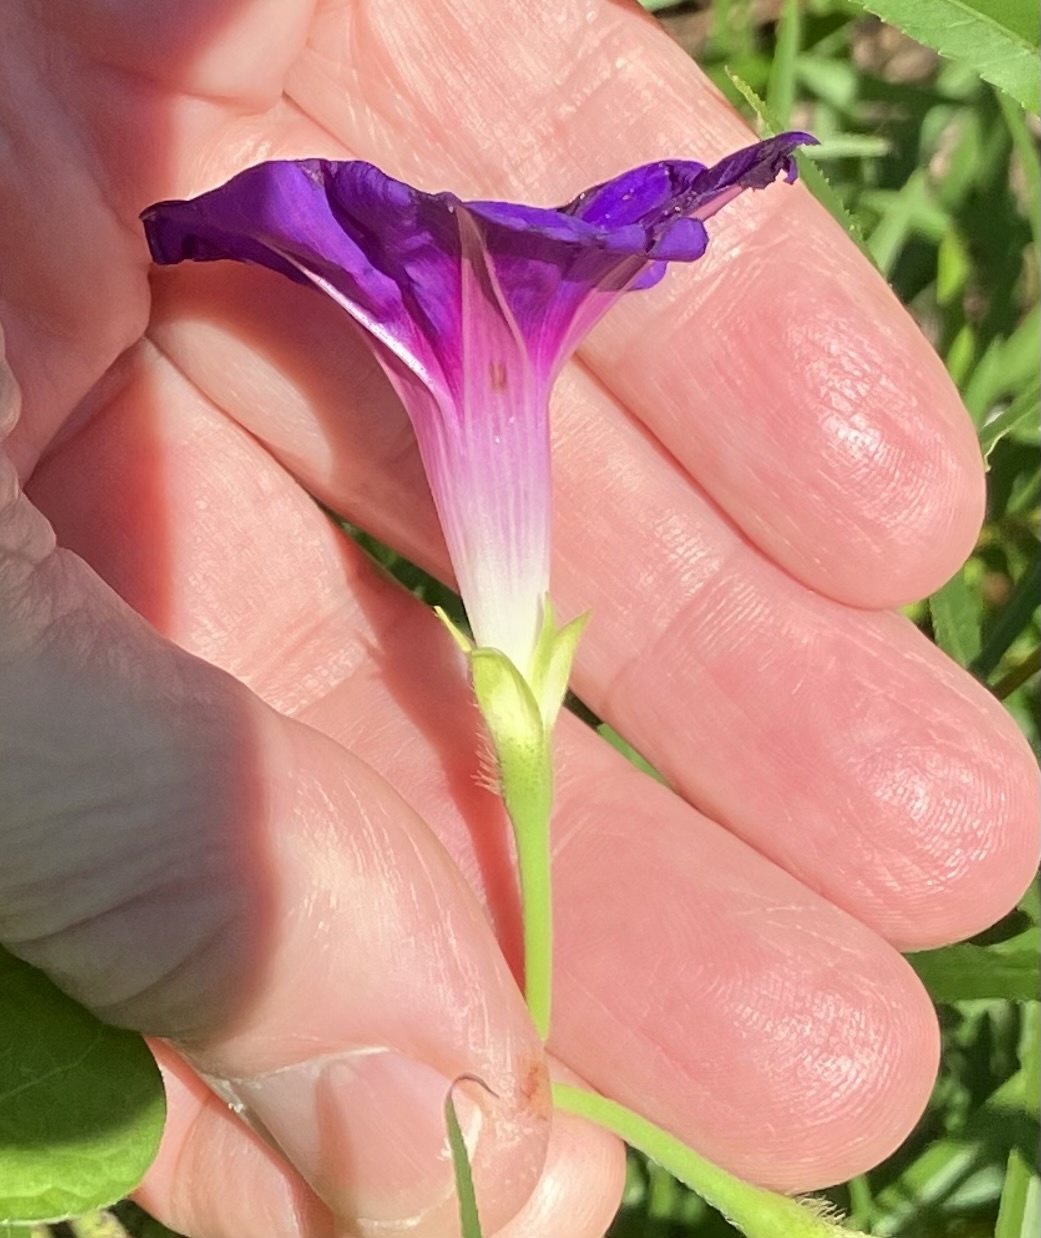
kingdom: Plantae
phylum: Tracheophyta
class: Magnoliopsida
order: Solanales
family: Convolvulaceae
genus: Ipomoea
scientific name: Ipomoea purpurea
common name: Common morning-glory
